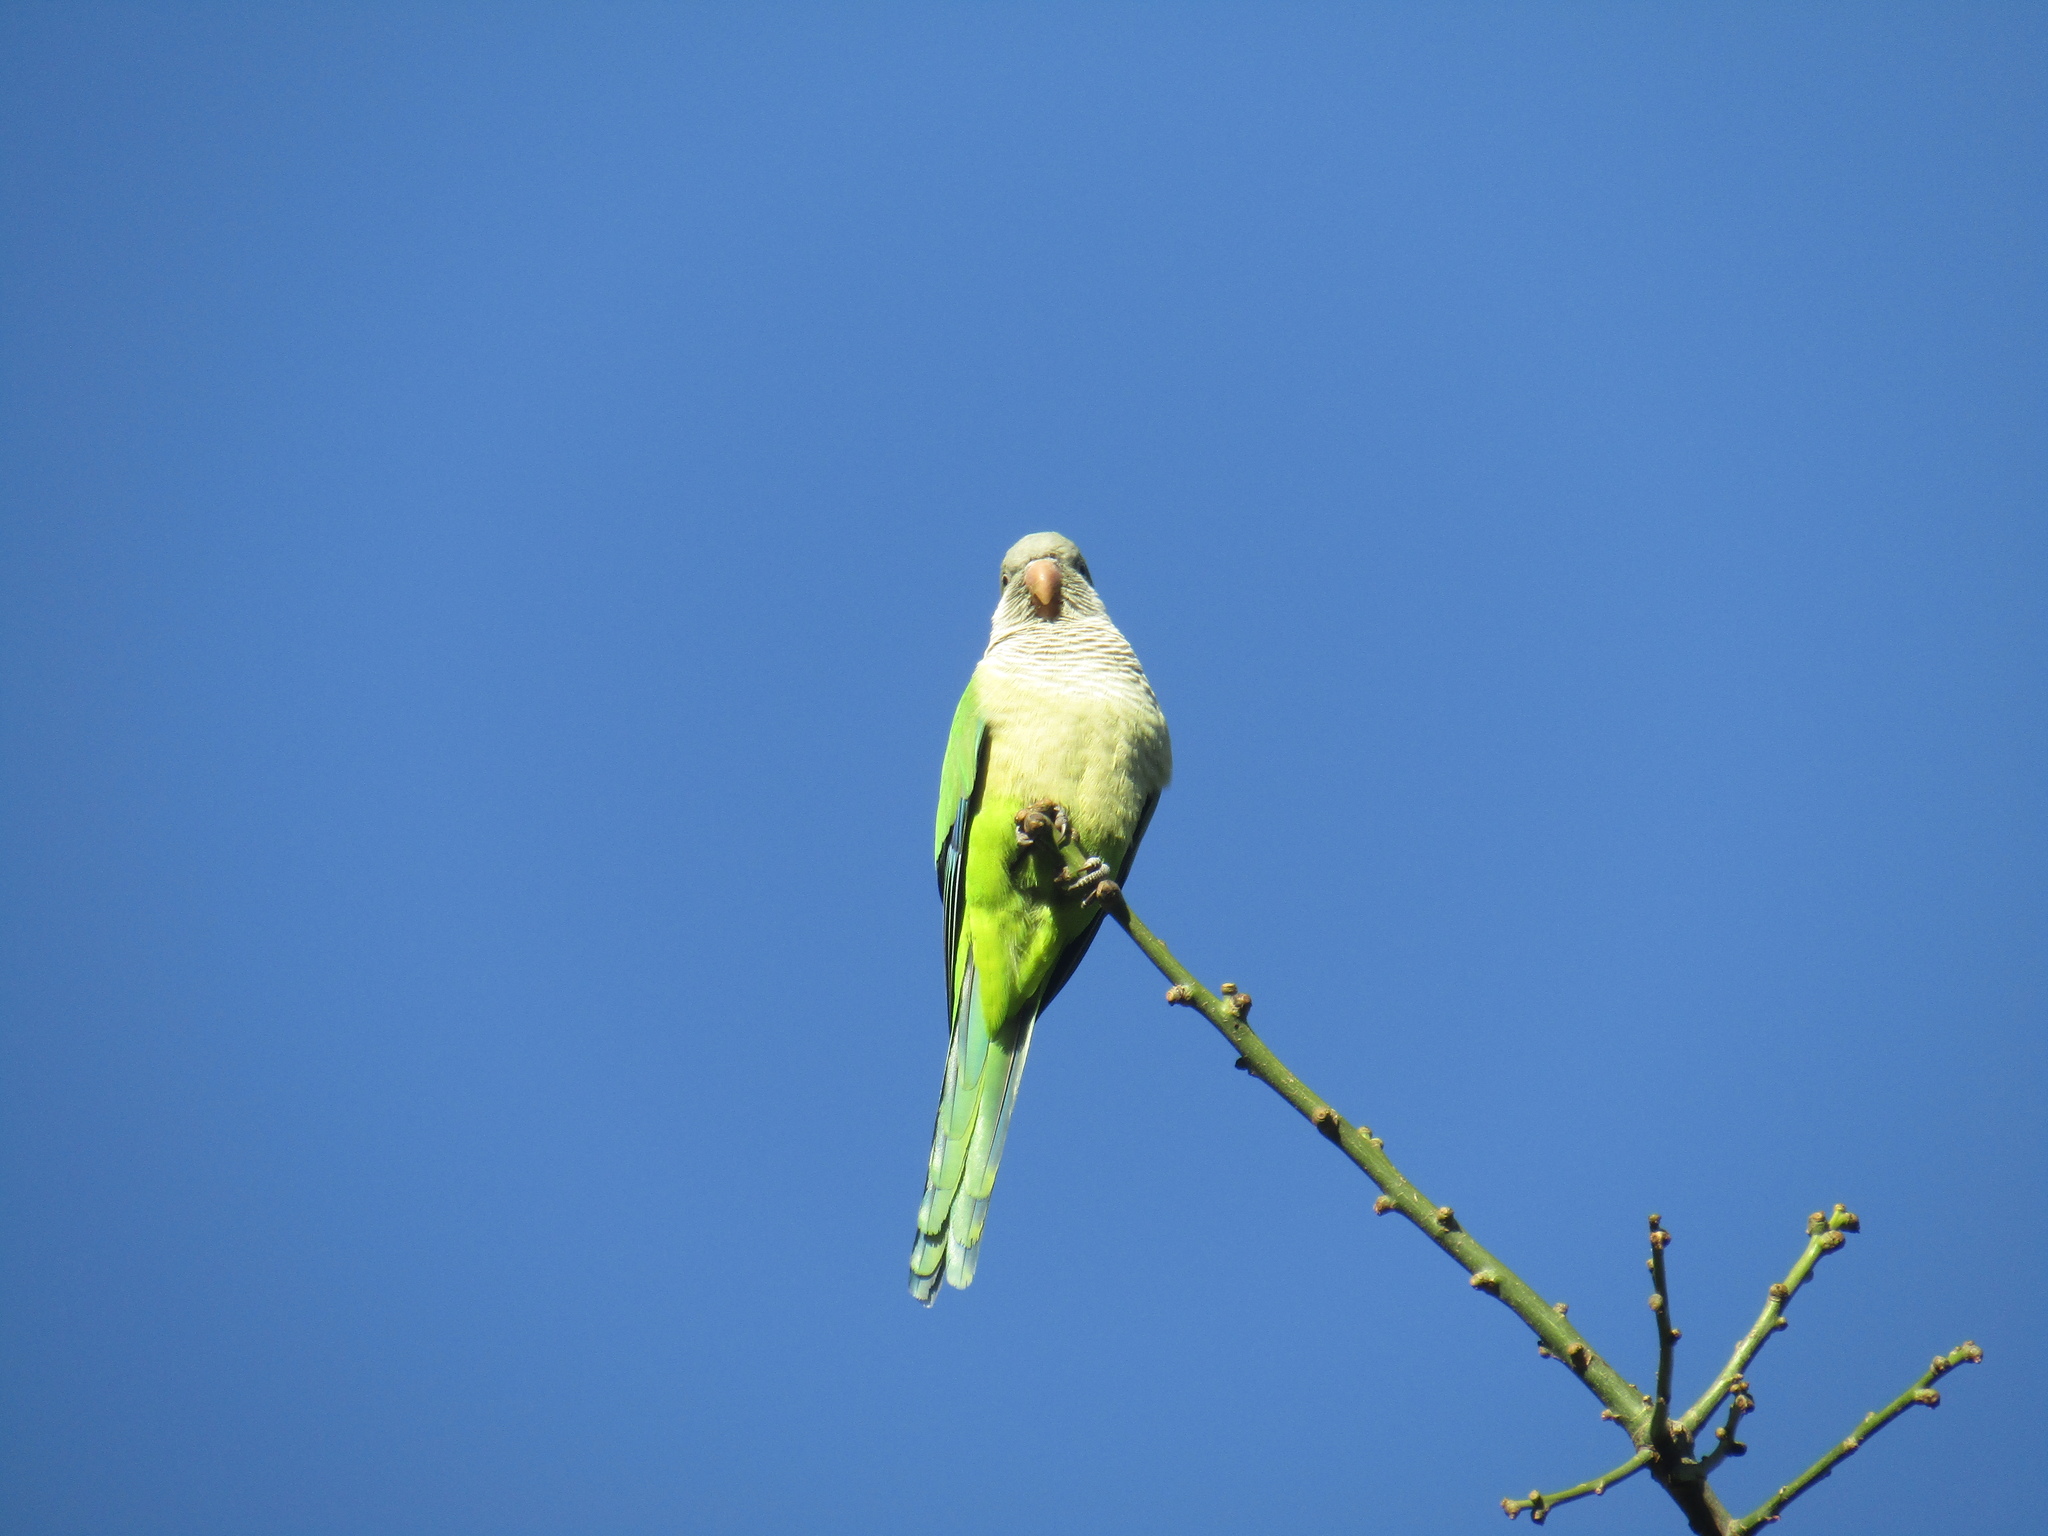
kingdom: Animalia
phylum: Chordata
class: Aves
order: Psittaciformes
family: Psittacidae
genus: Myiopsitta
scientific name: Myiopsitta monachus
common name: Monk parakeet
